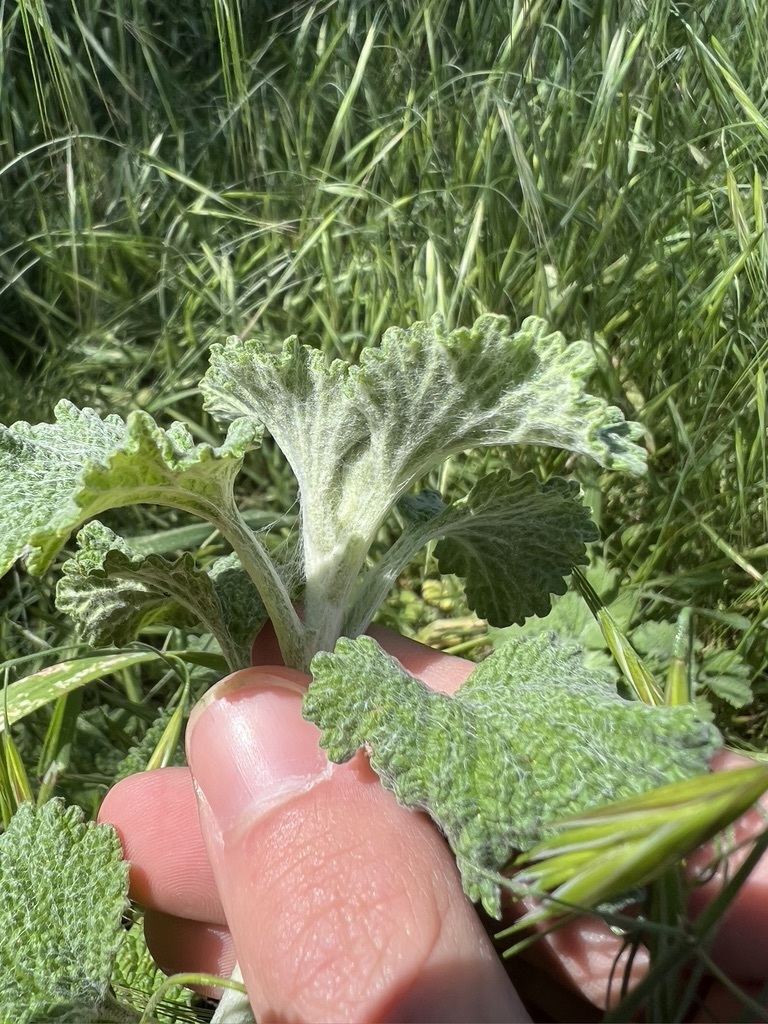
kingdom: Plantae
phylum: Tracheophyta
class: Magnoliopsida
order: Lamiales
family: Lamiaceae
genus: Marrubium
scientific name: Marrubium vulgare
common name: Horehound
